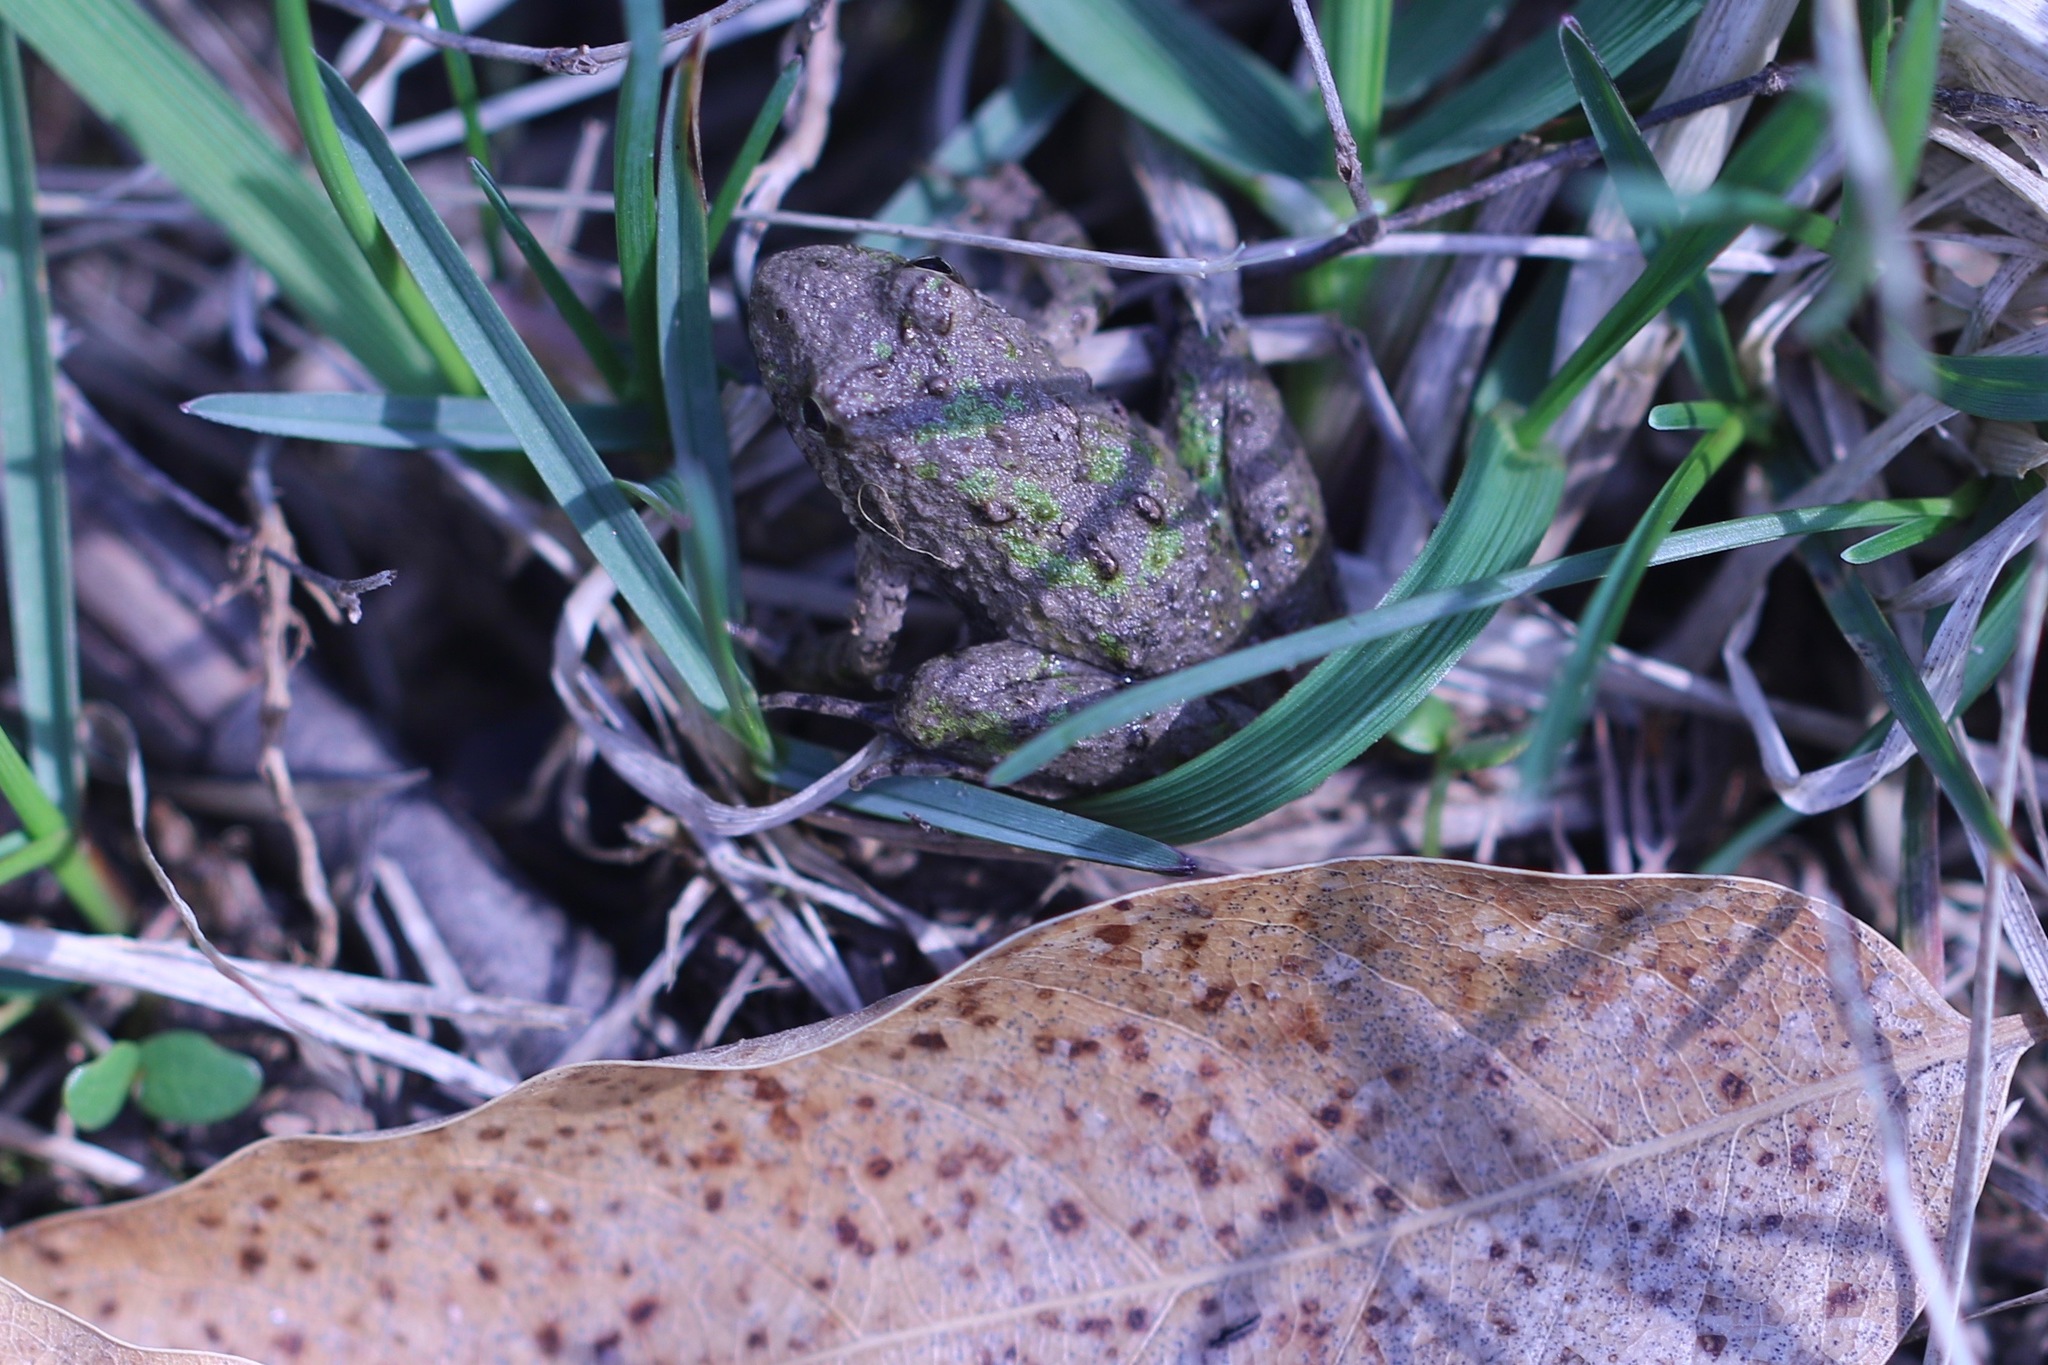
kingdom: Animalia
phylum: Chordata
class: Amphibia
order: Anura
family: Hylidae
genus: Acris
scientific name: Acris blanchardi
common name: Blanchard's cricket frog
